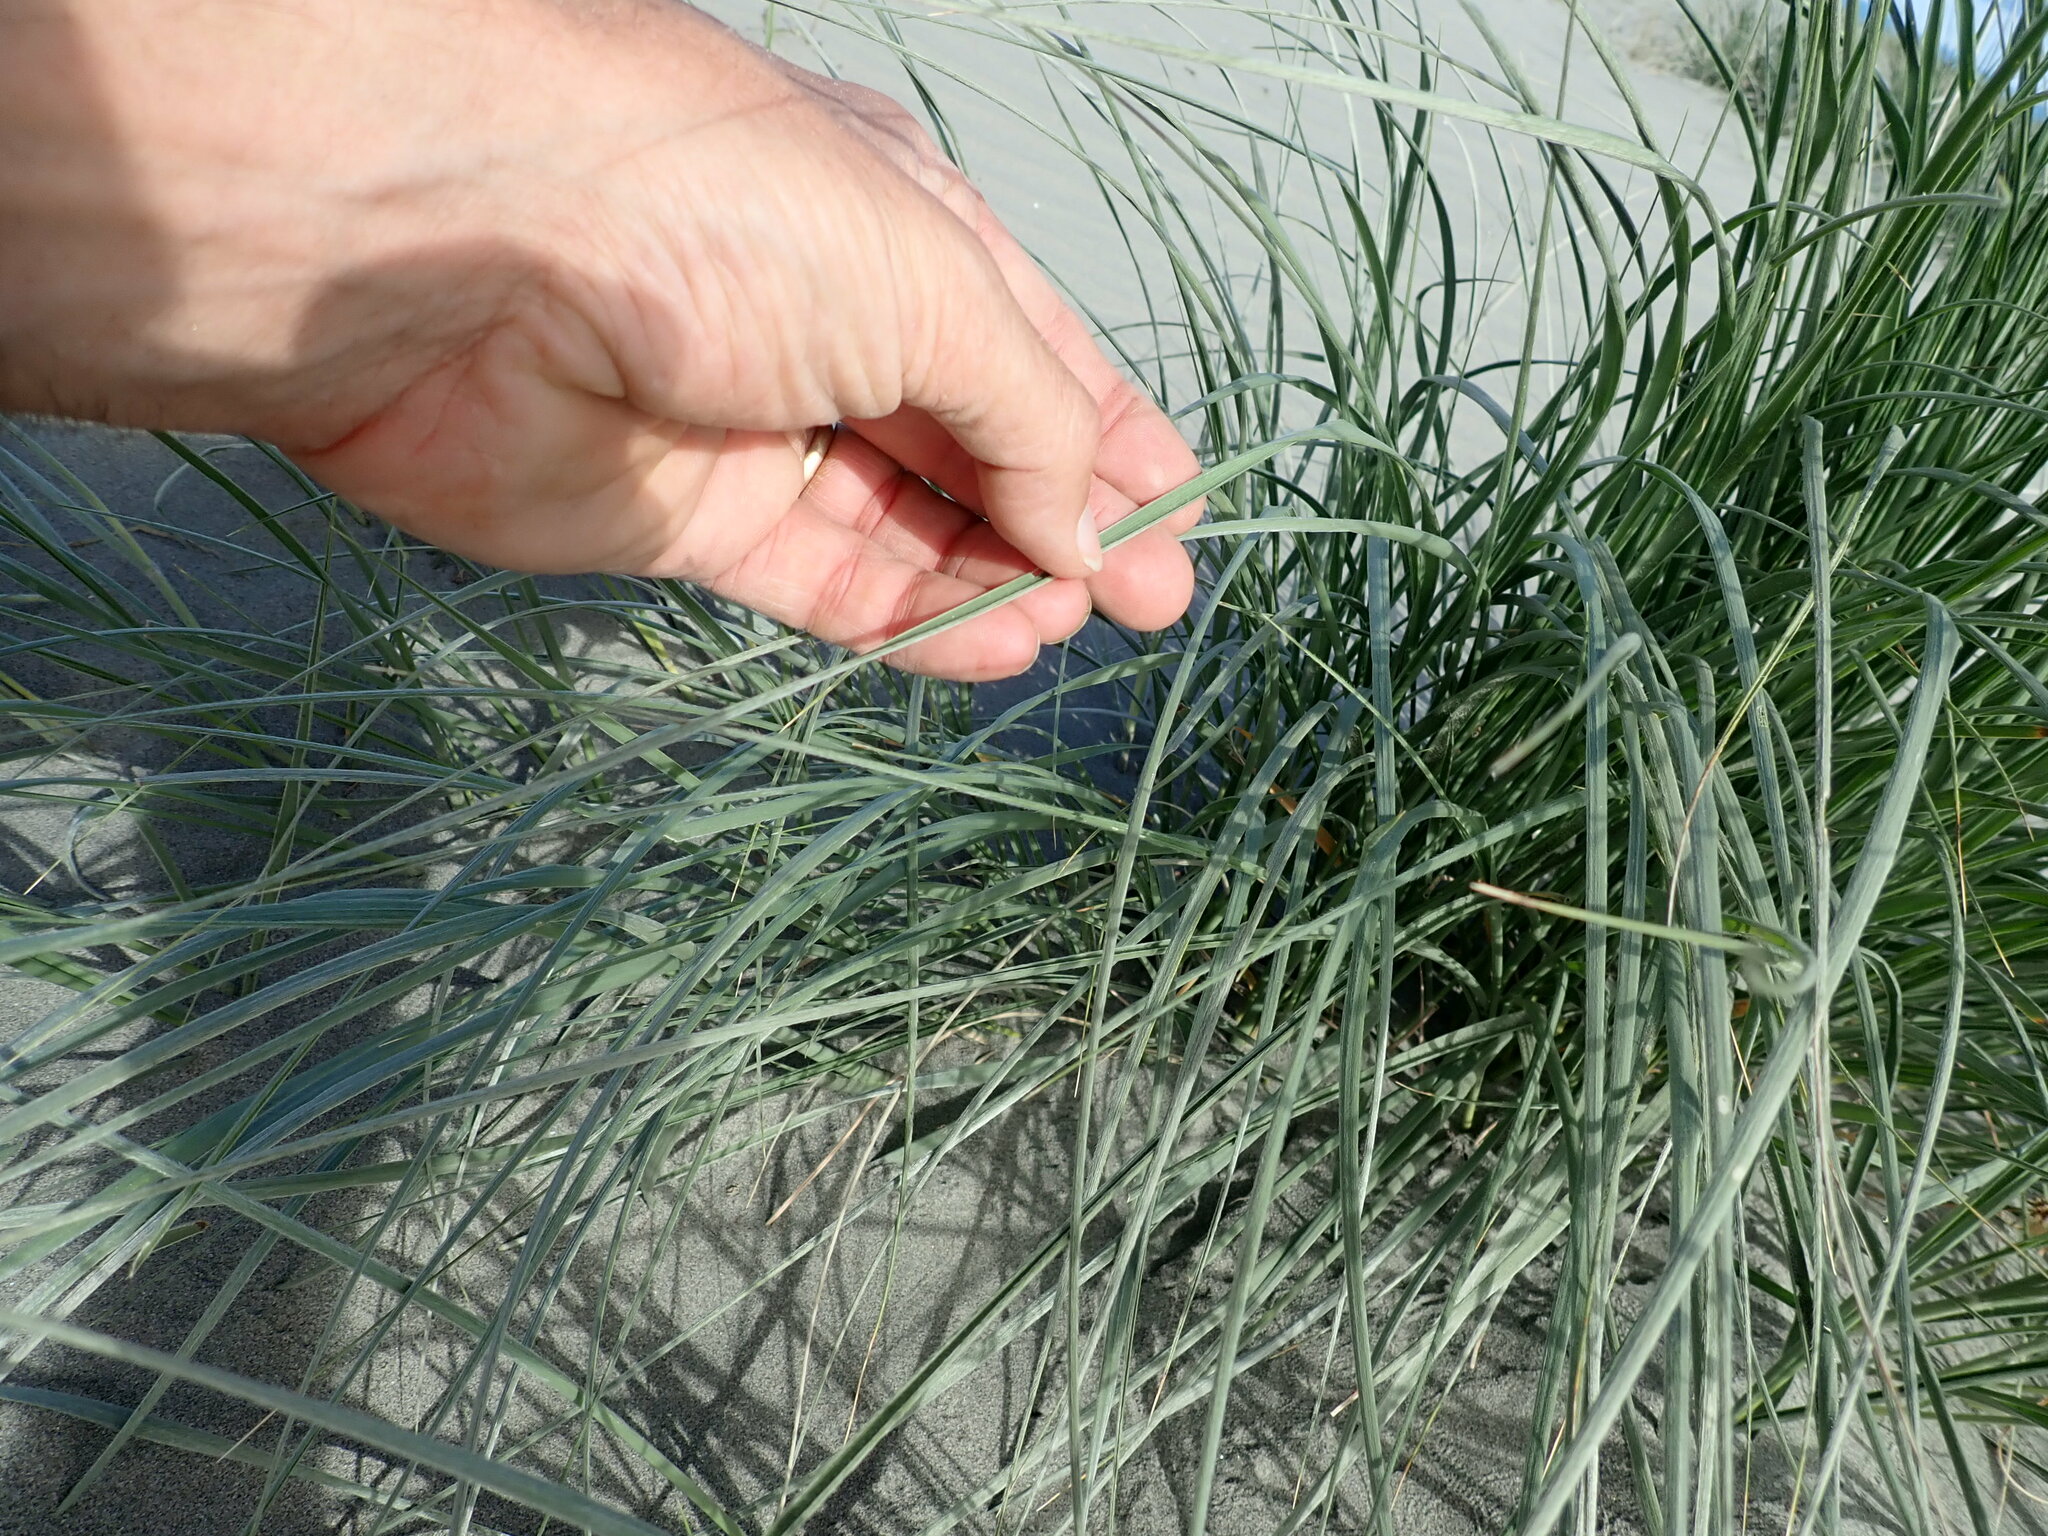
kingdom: Plantae
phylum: Tracheophyta
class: Liliopsida
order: Poales
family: Poaceae
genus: Spinifex
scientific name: Spinifex sericeus
